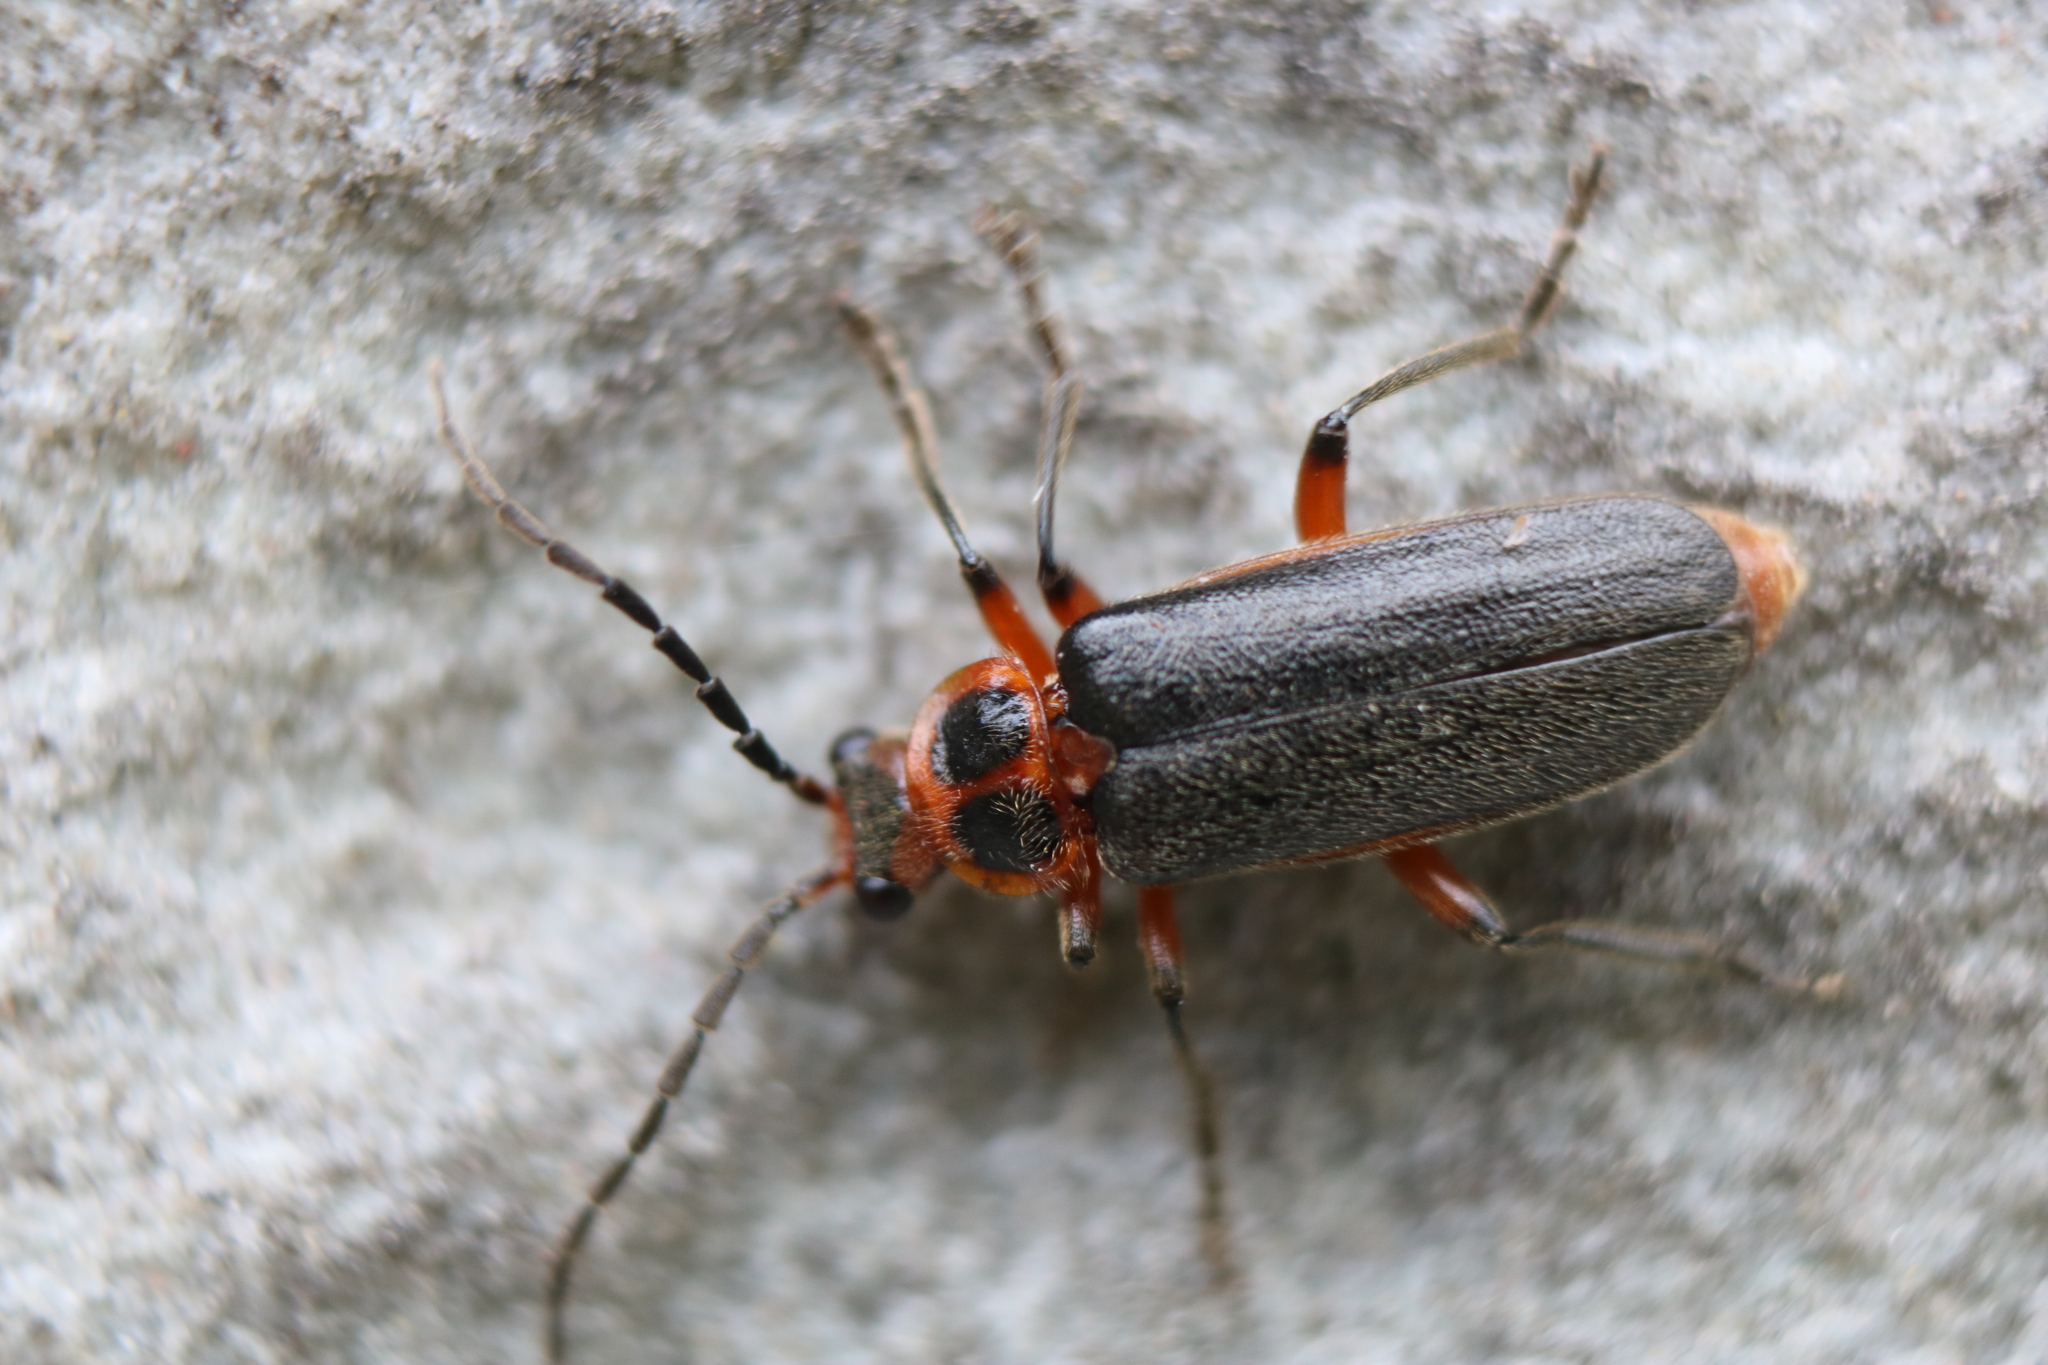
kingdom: Animalia
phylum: Arthropoda
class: Insecta
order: Coleoptera
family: Cantharidae
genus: Atalantycha
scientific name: Atalantycha bilineata
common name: Two-lined leatherwing
